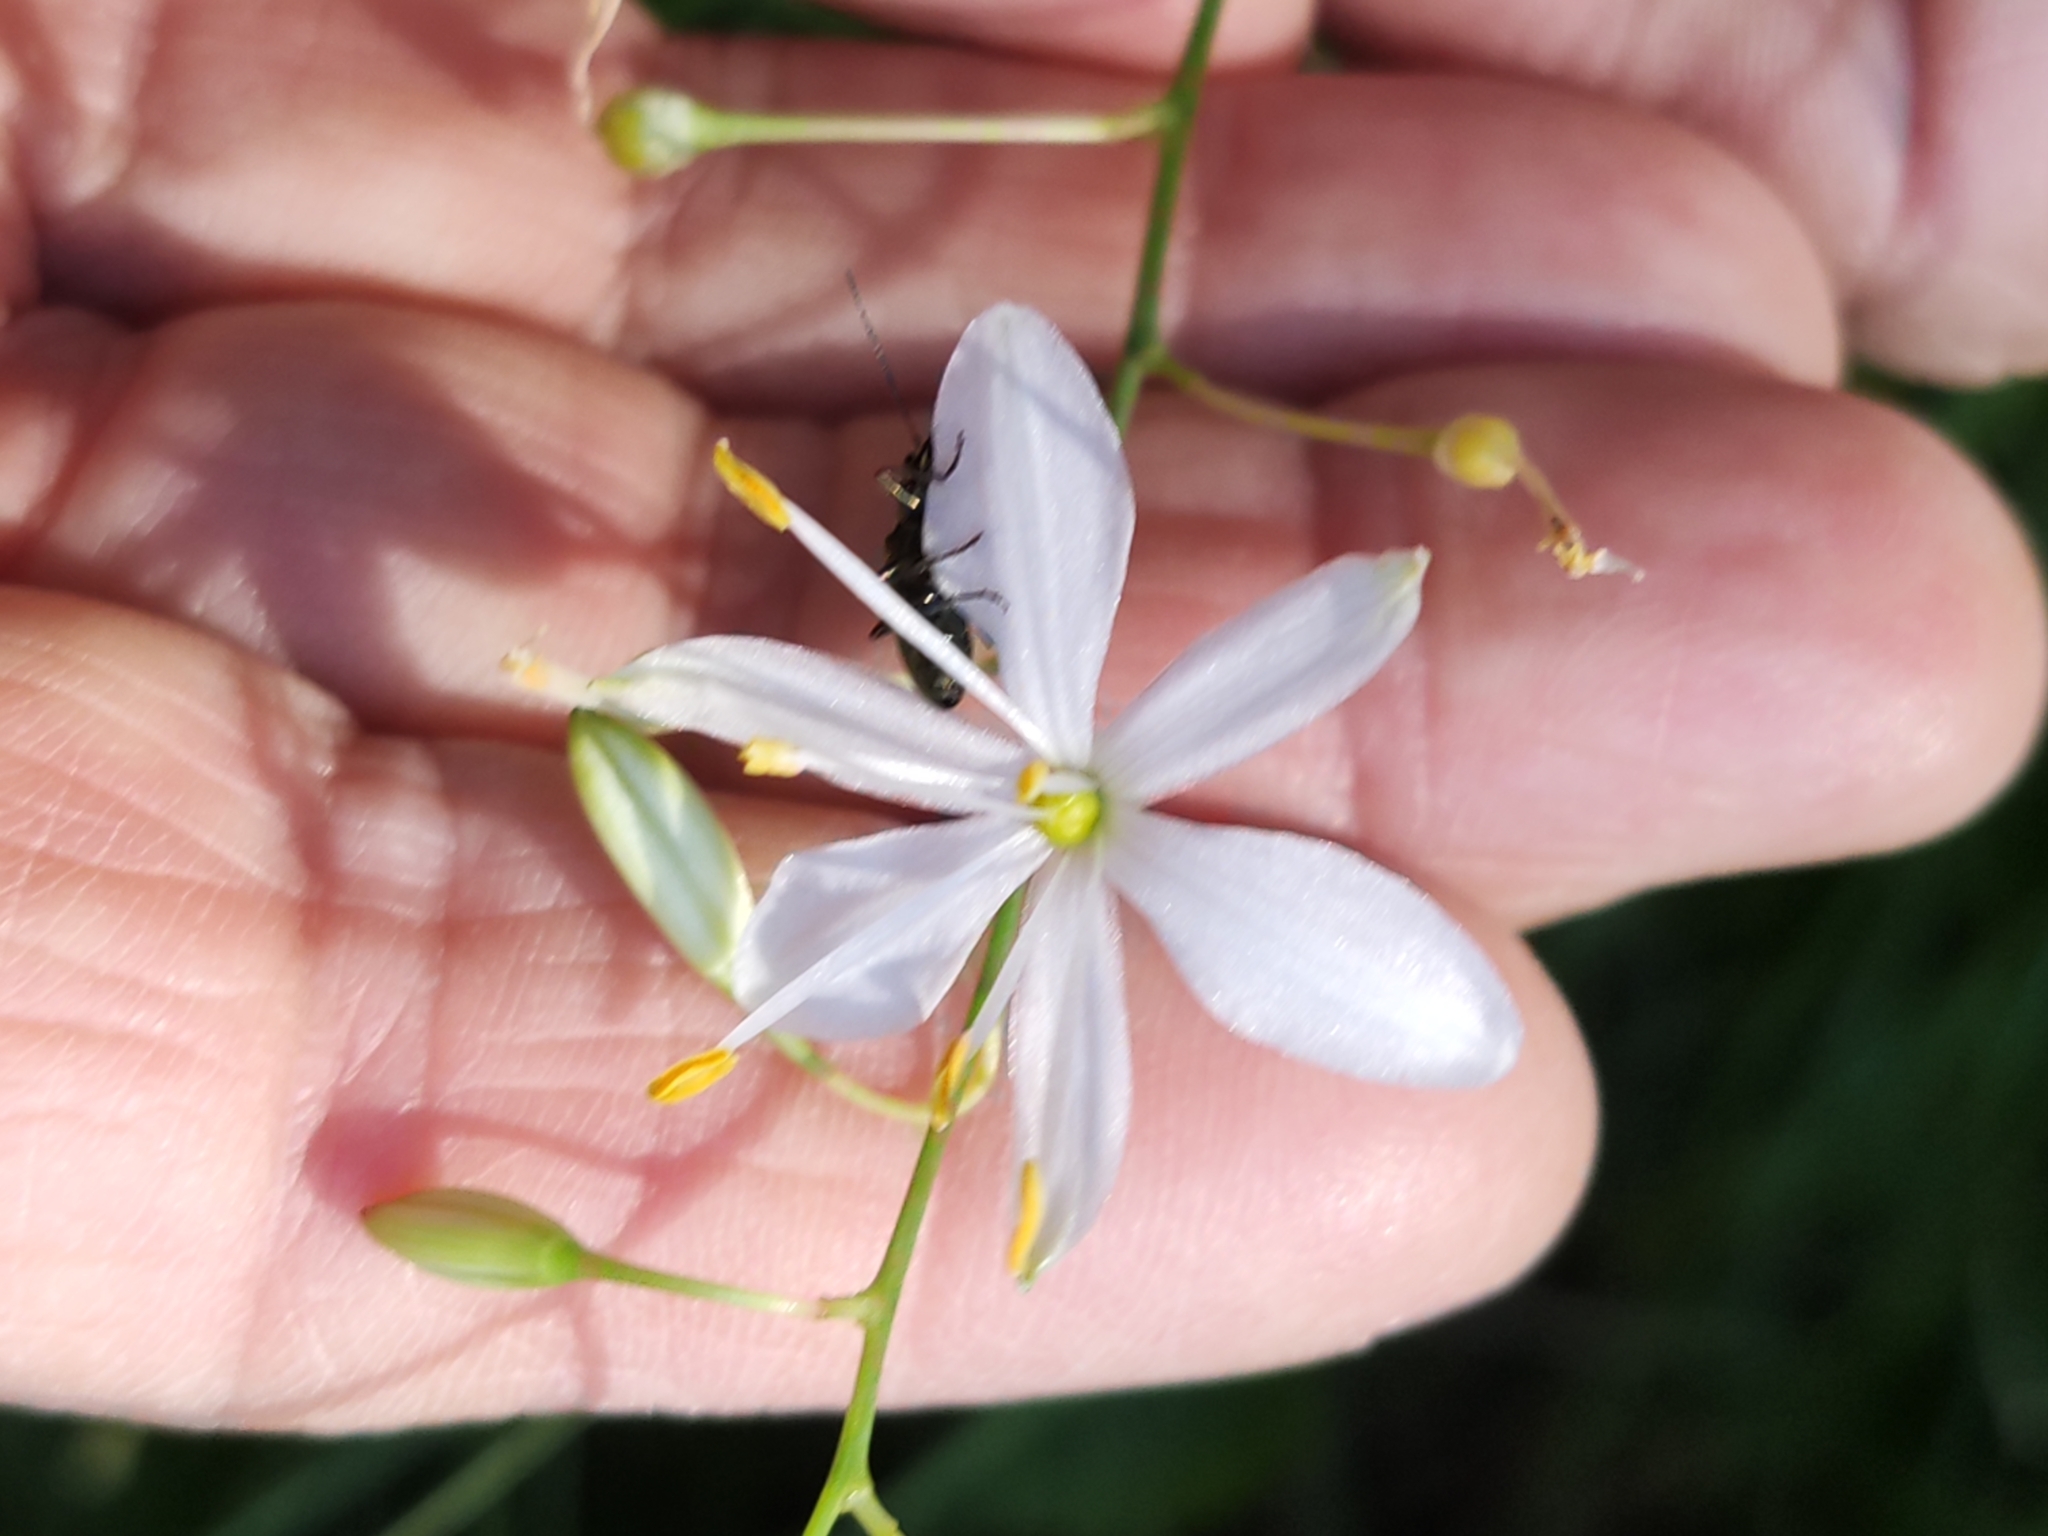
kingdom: Plantae
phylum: Tracheophyta
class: Liliopsida
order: Asparagales
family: Asparagaceae
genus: Anthericum
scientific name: Anthericum ramosum
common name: Branched st. bernard's-lily
